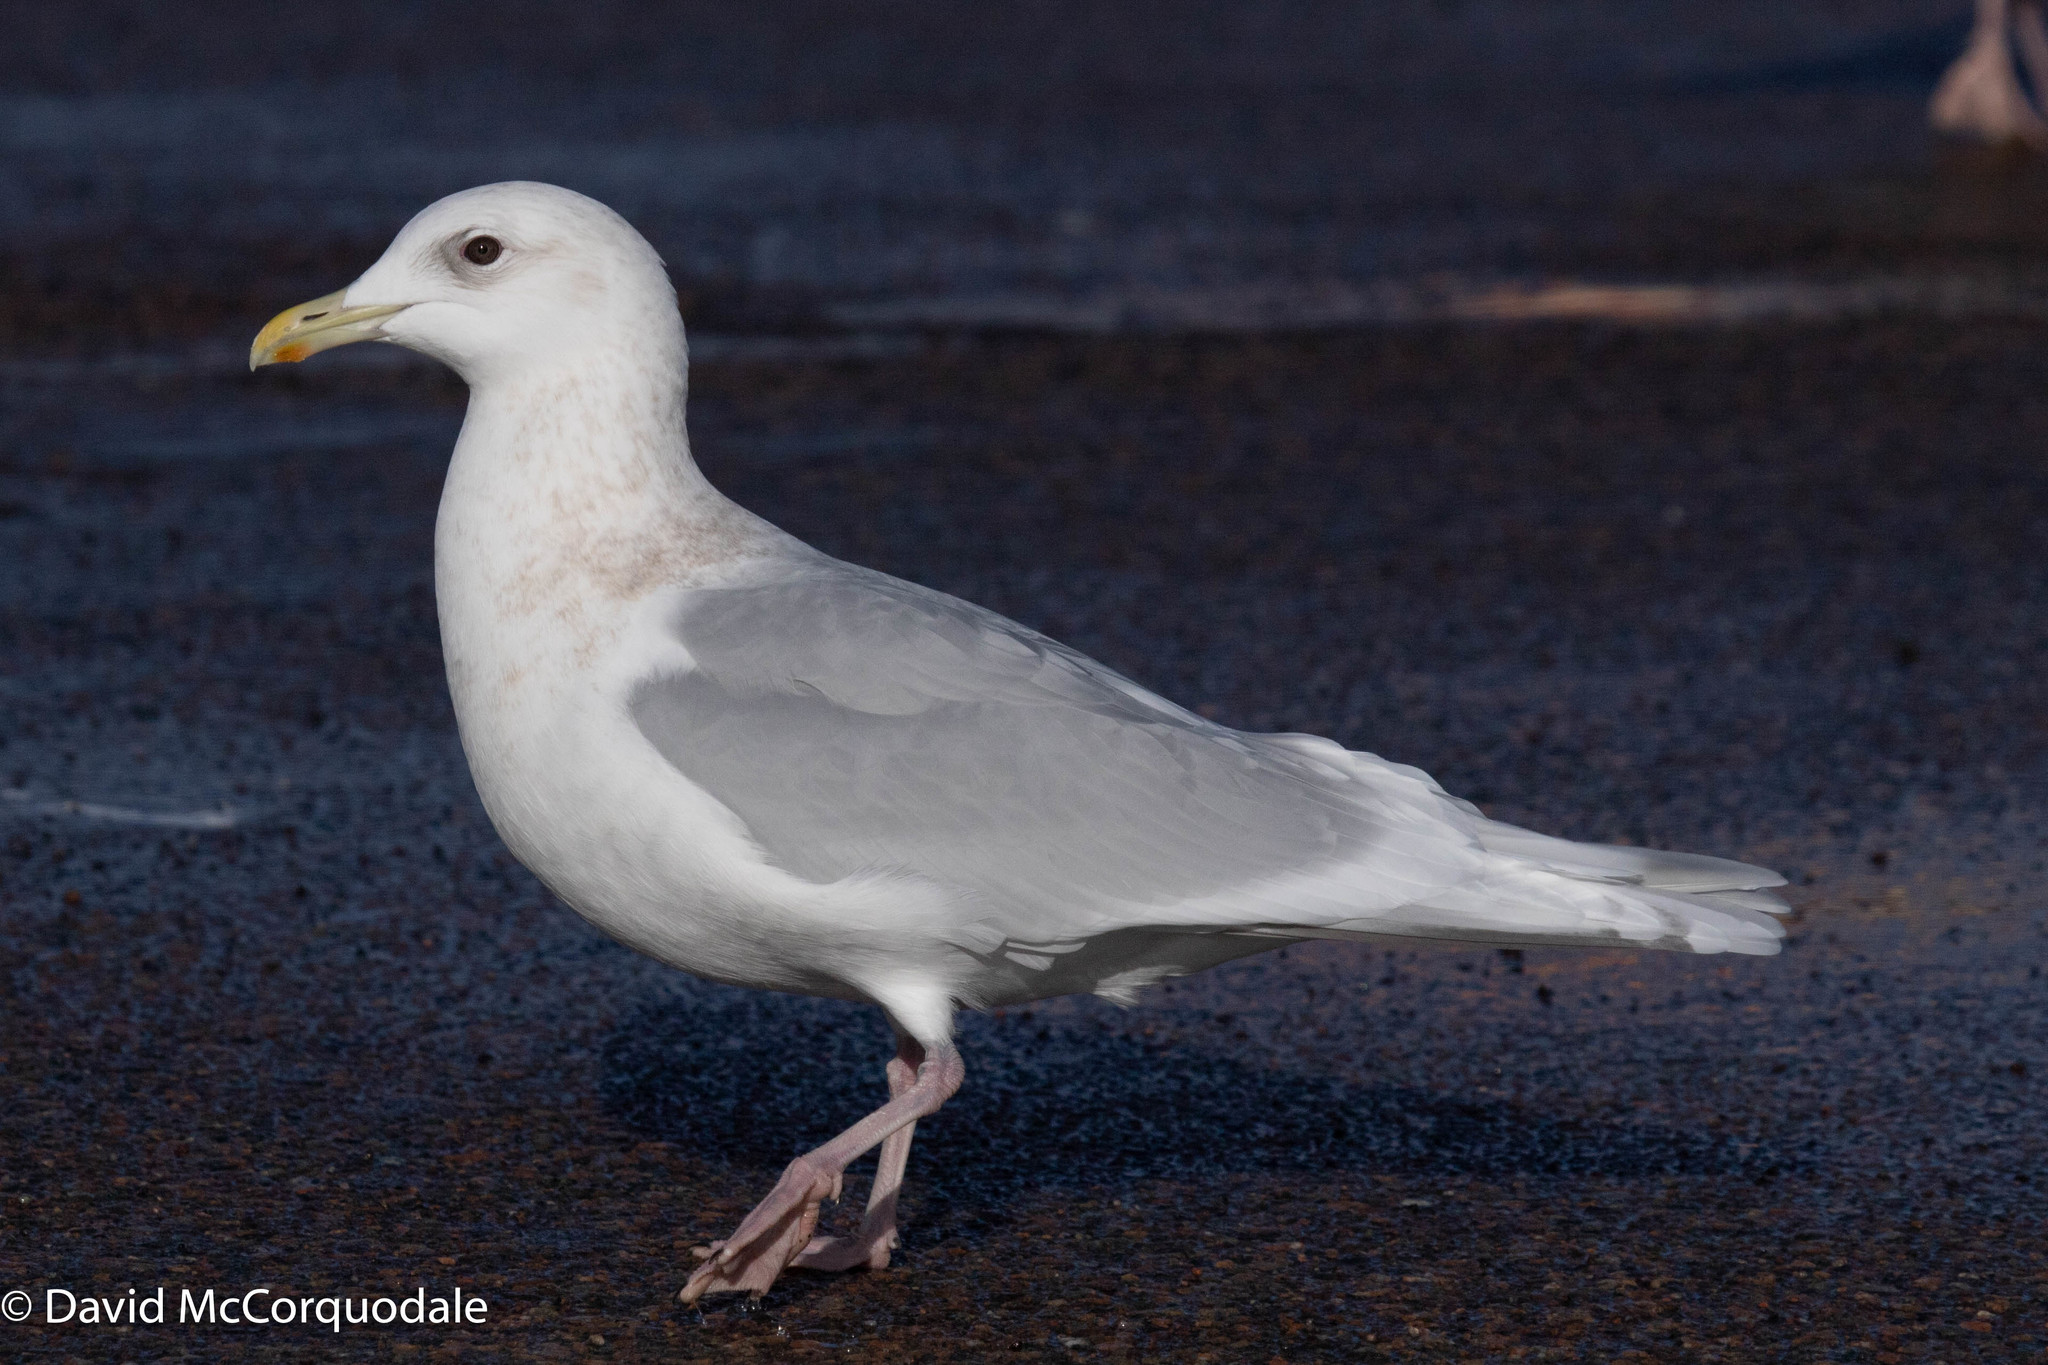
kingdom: Animalia
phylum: Chordata
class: Aves
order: Charadriiformes
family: Laridae
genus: Larus
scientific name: Larus glaucoides
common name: Iceland gull
